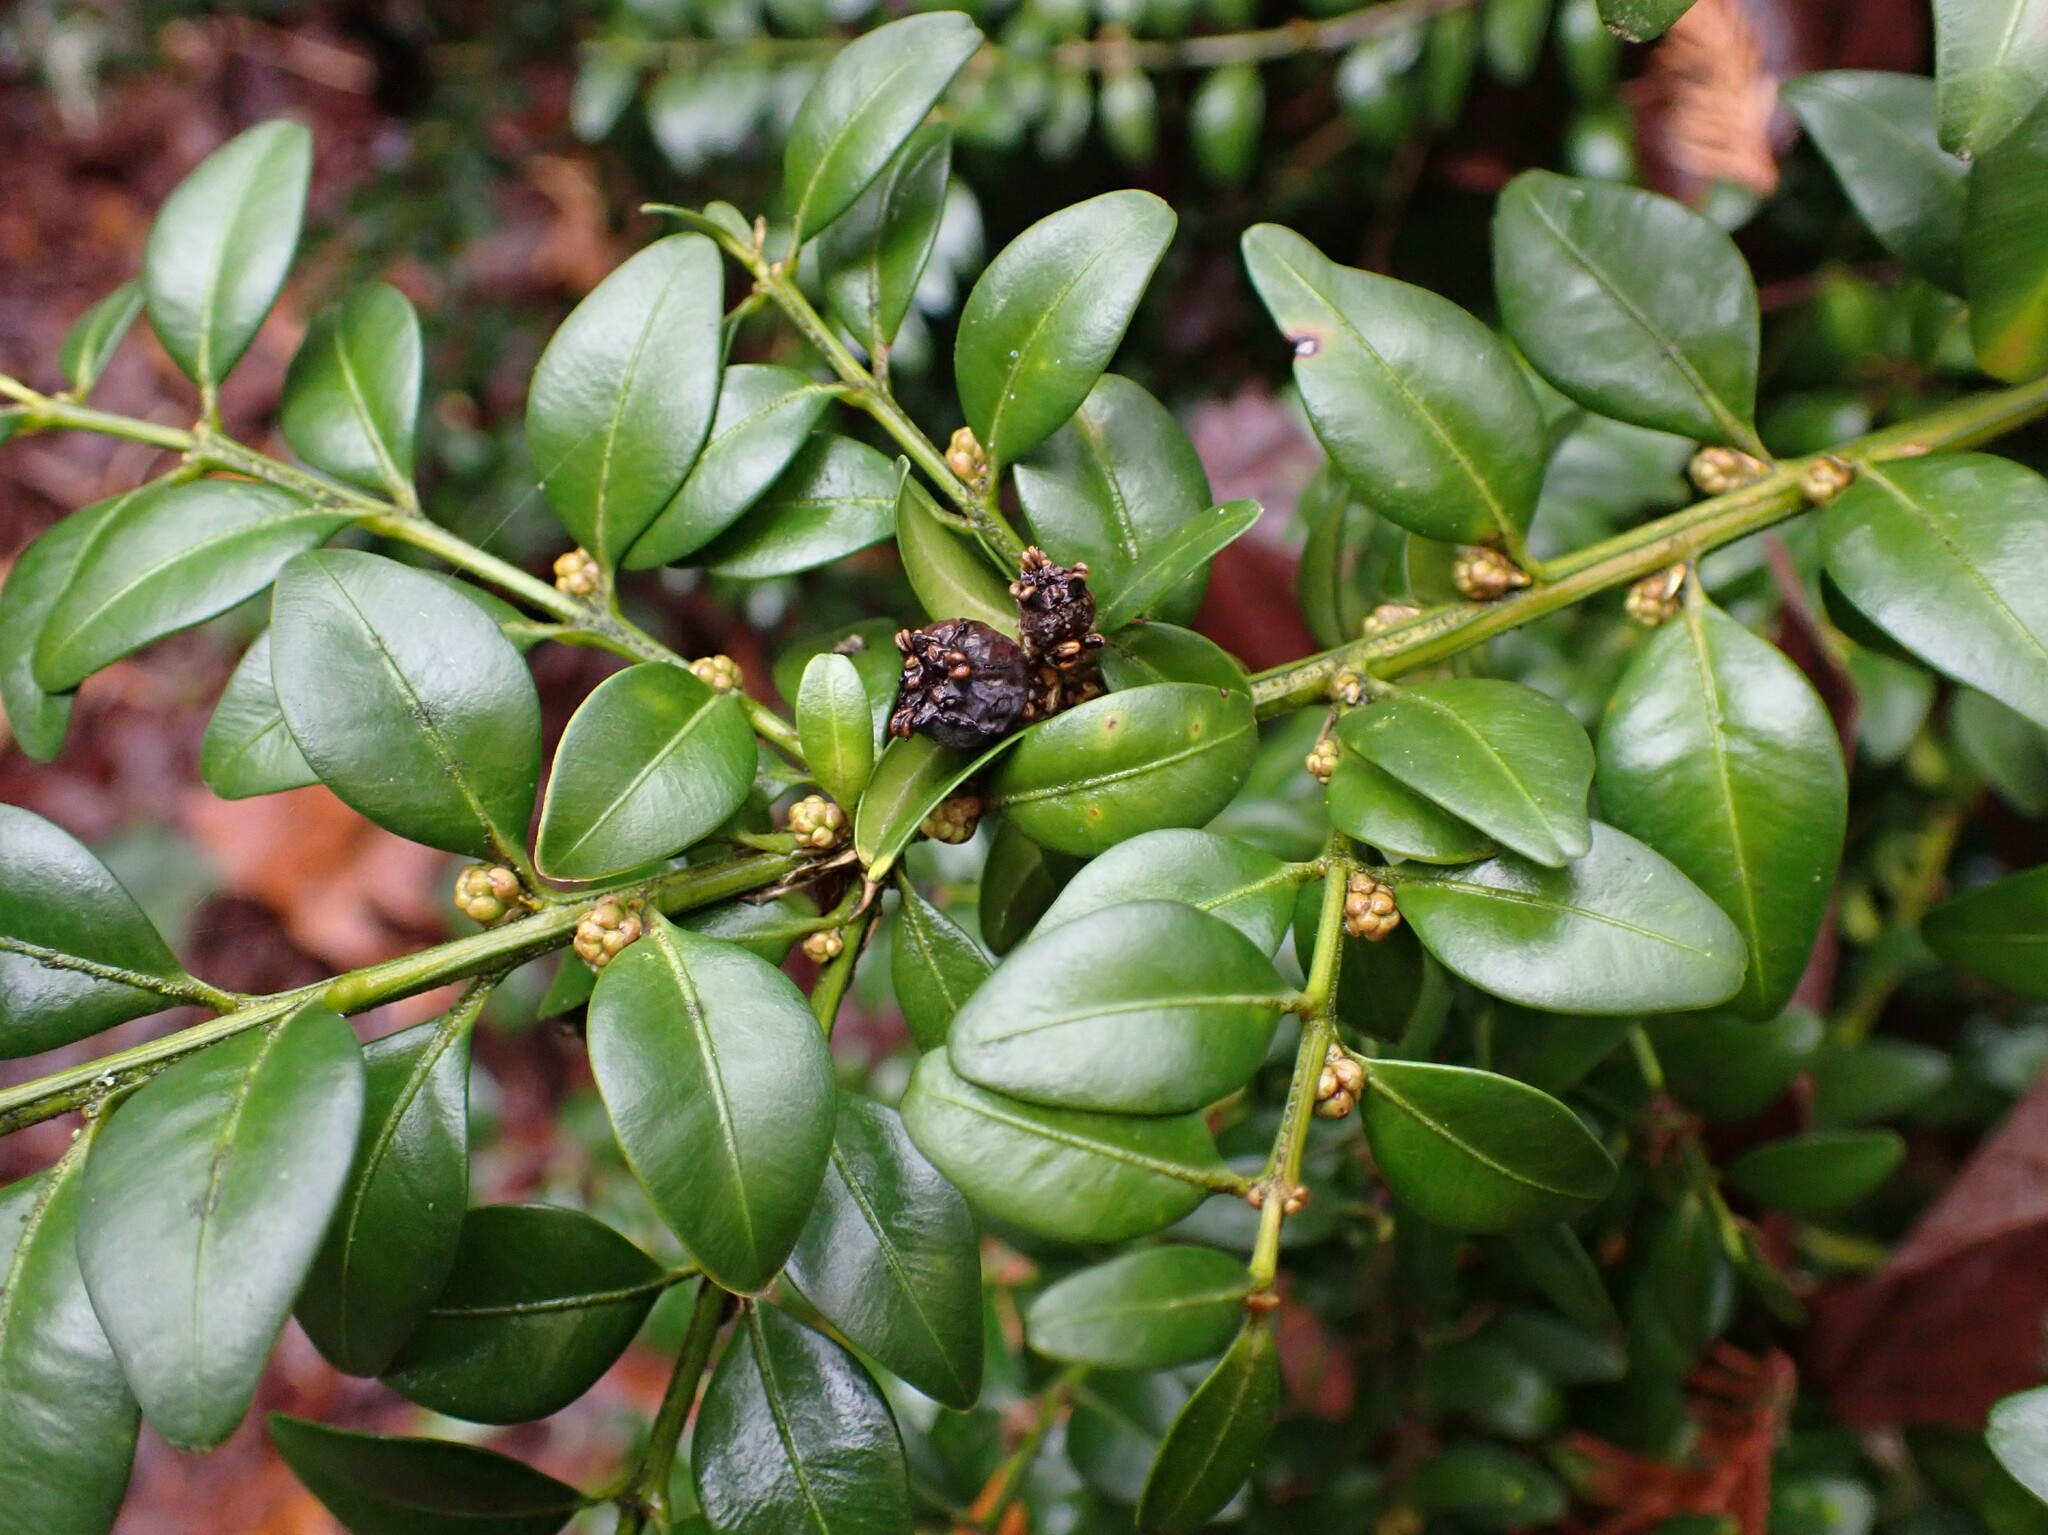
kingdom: Plantae
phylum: Tracheophyta
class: Magnoliopsida
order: Buxales
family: Buxaceae
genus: Buxus
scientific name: Buxus sempervirens
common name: Box
